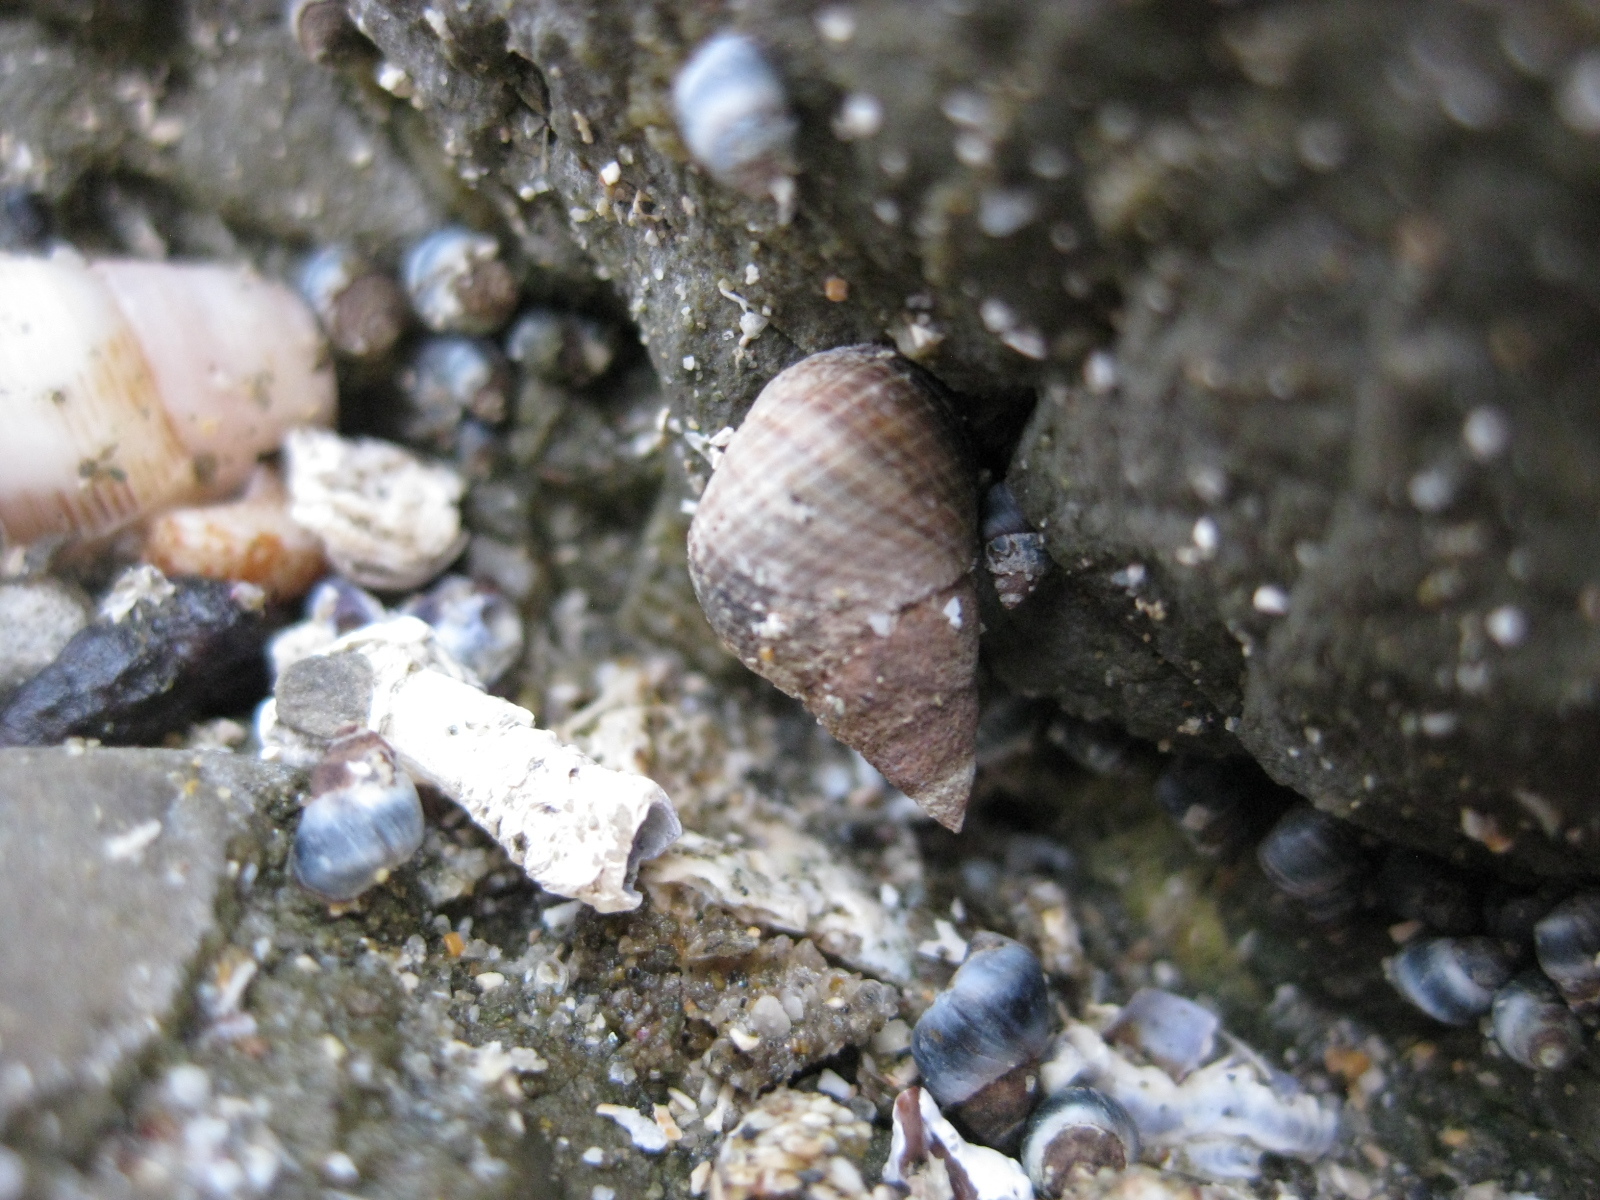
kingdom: Animalia
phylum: Mollusca
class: Gastropoda
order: Littorinimorpha
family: Littorinidae
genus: Austrolittorina
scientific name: Austrolittorina cincta
